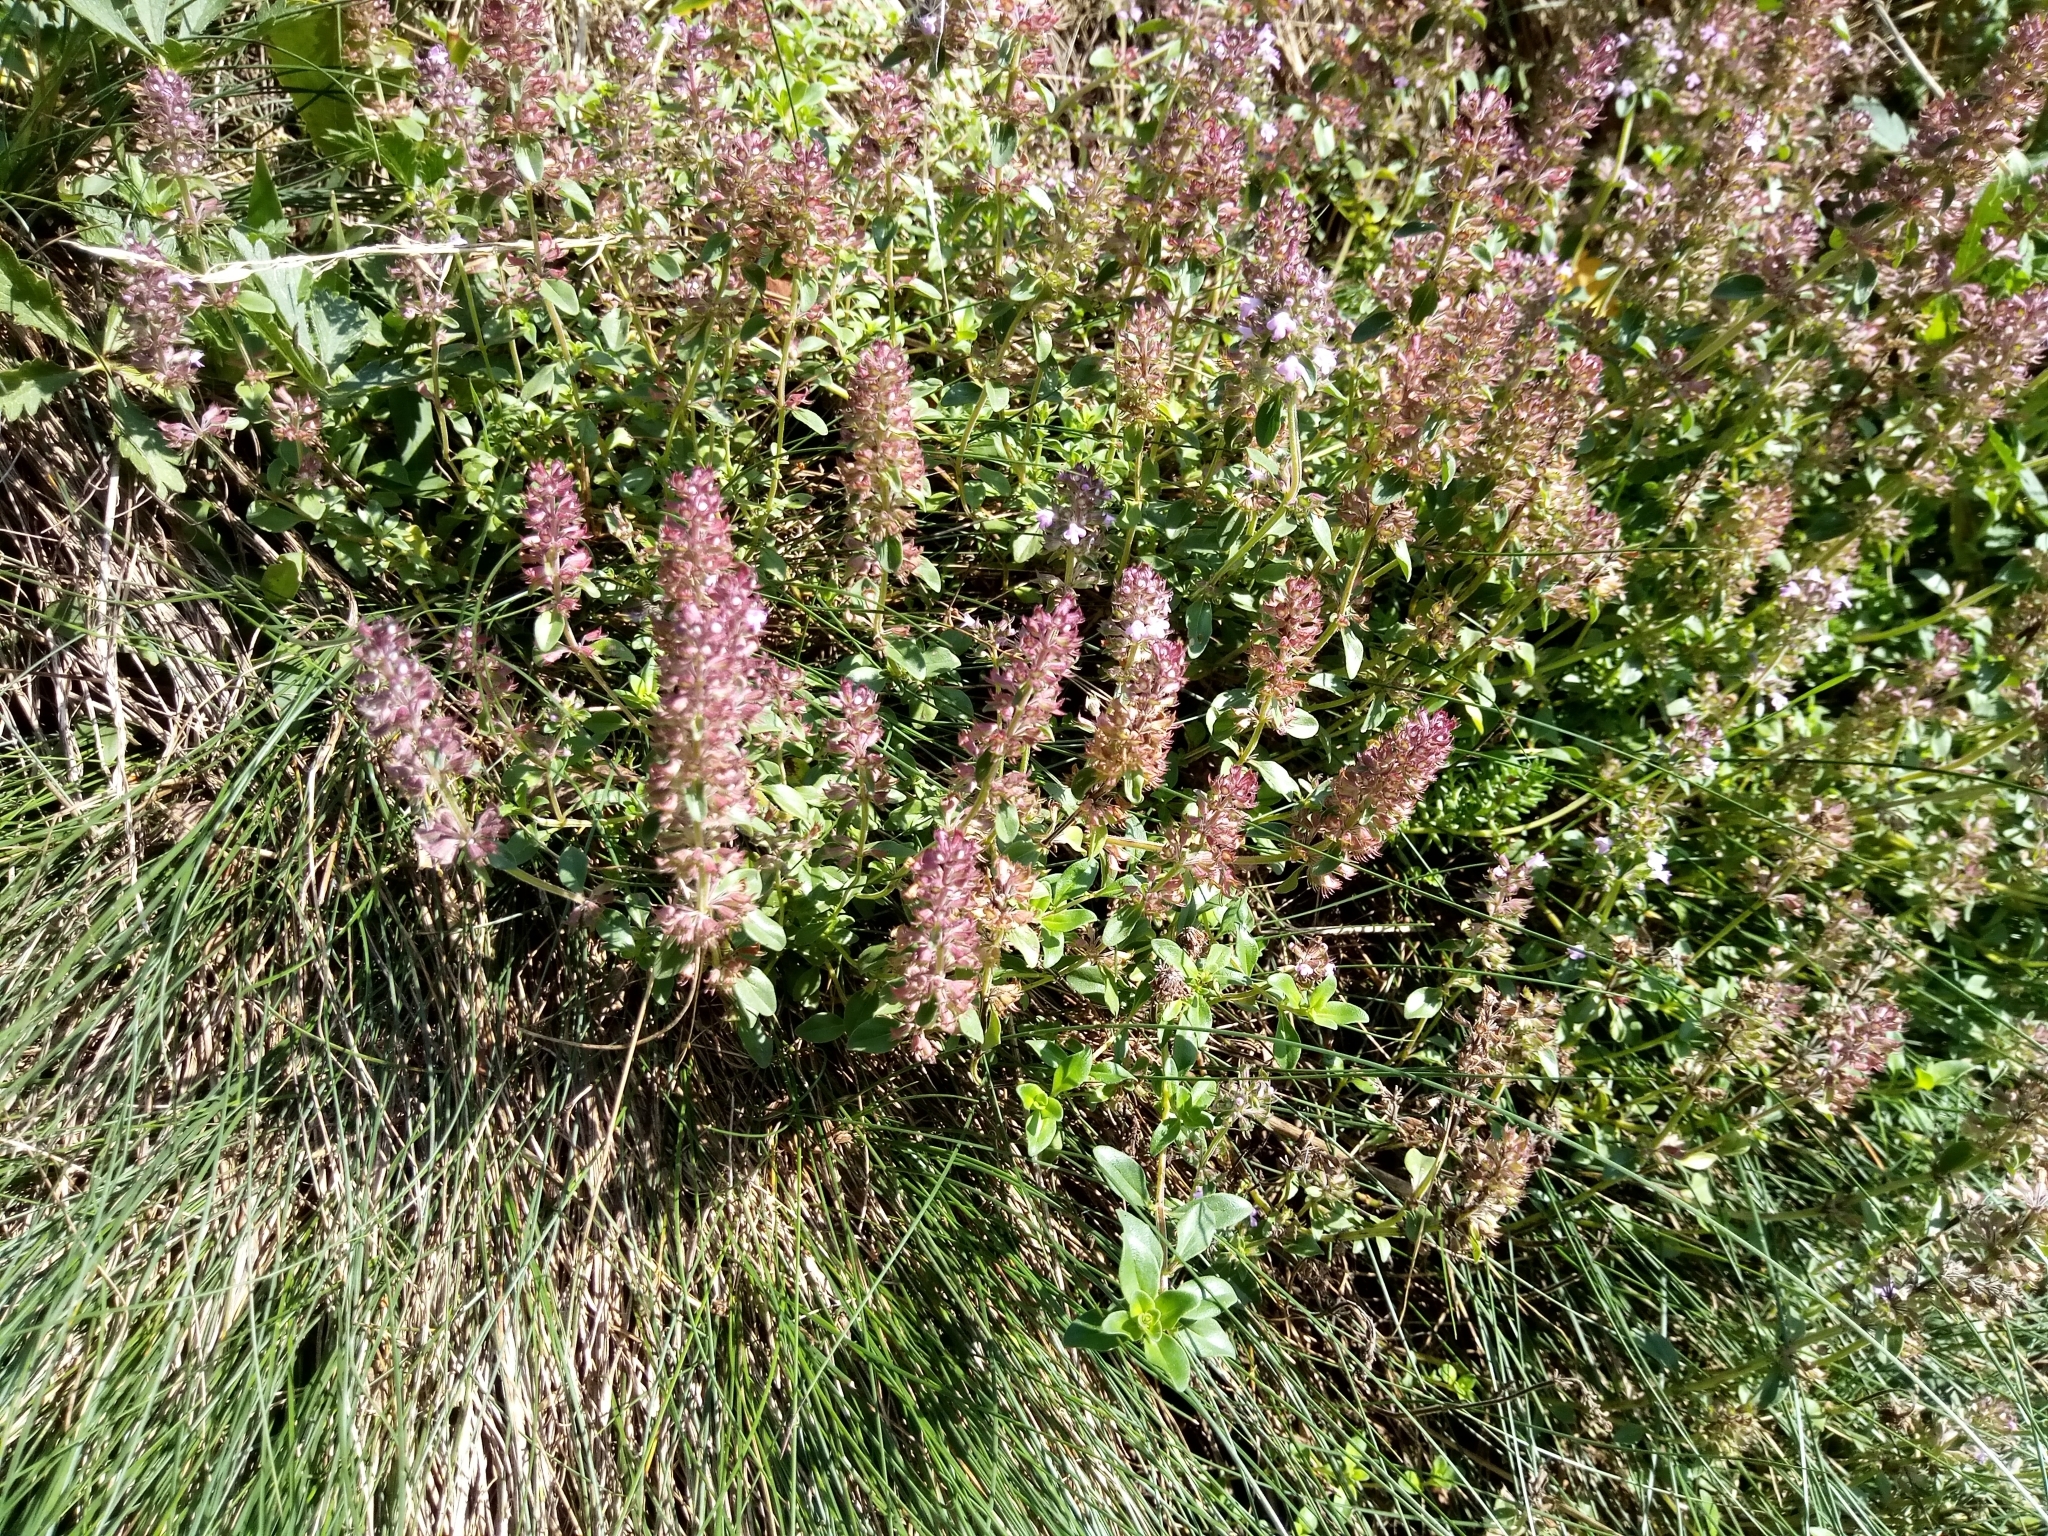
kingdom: Plantae
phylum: Tracheophyta
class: Magnoliopsida
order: Lamiales
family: Lamiaceae
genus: Thymus
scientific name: Thymus pulegioides
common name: Large thyme
